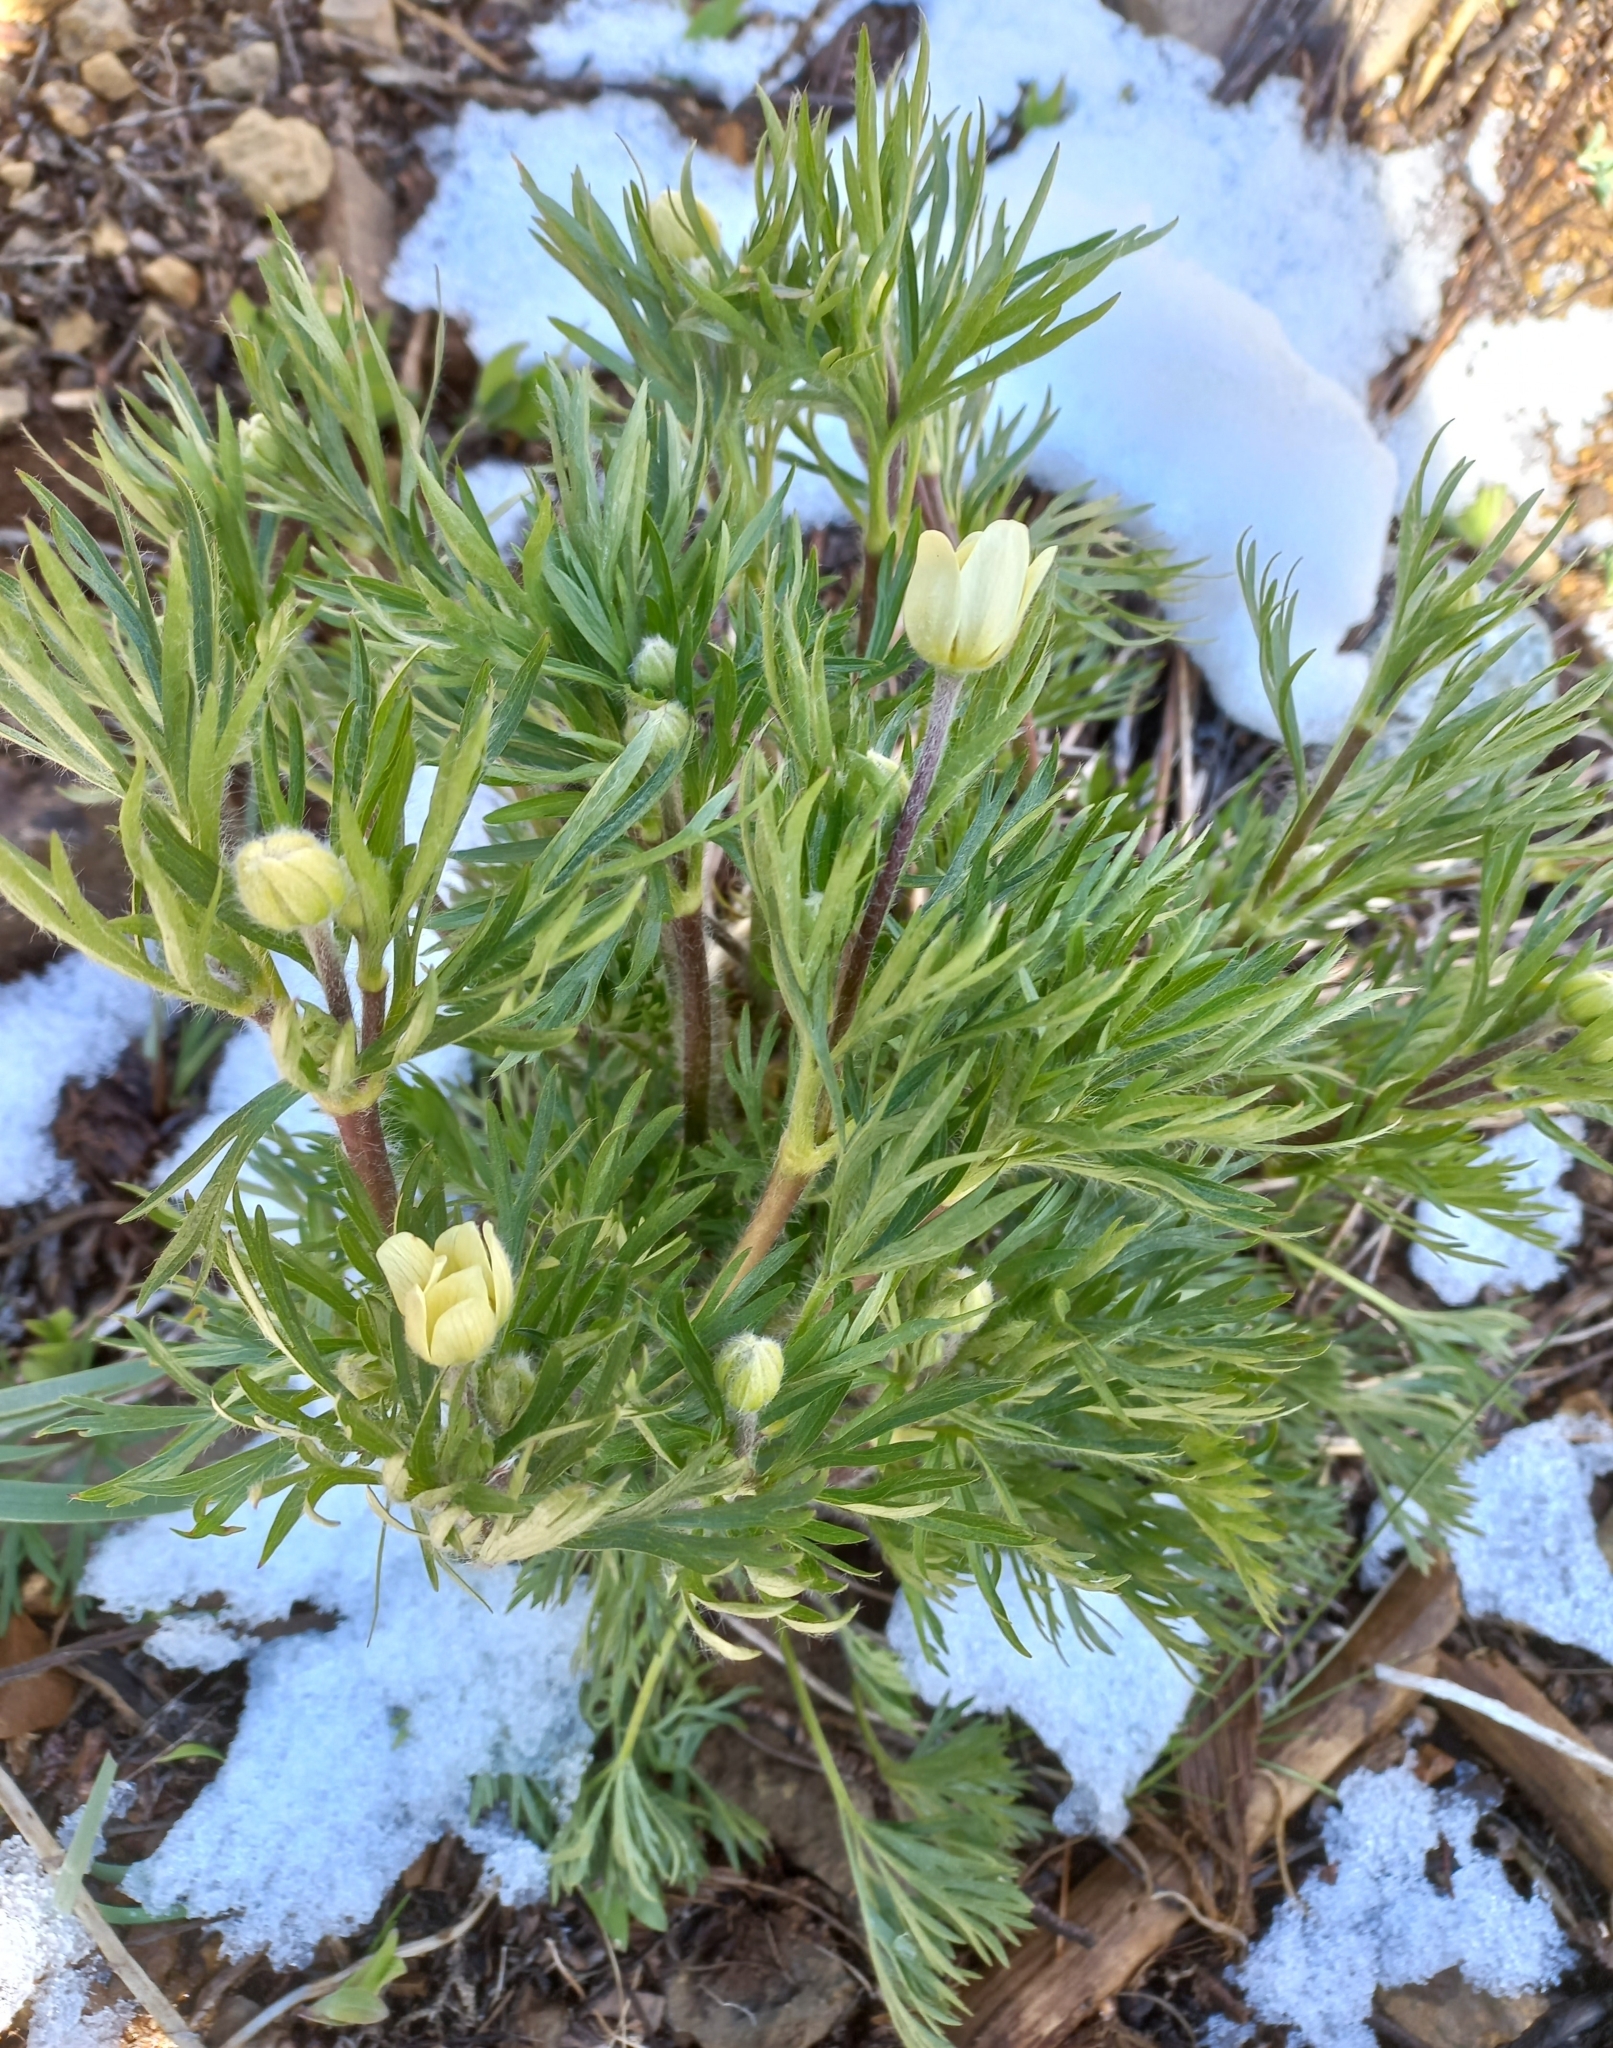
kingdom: Plantae
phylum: Tracheophyta
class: Magnoliopsida
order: Ranunculales
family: Ranunculaceae
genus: Anemone
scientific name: Anemone multifida
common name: Bird's-foot anemone
